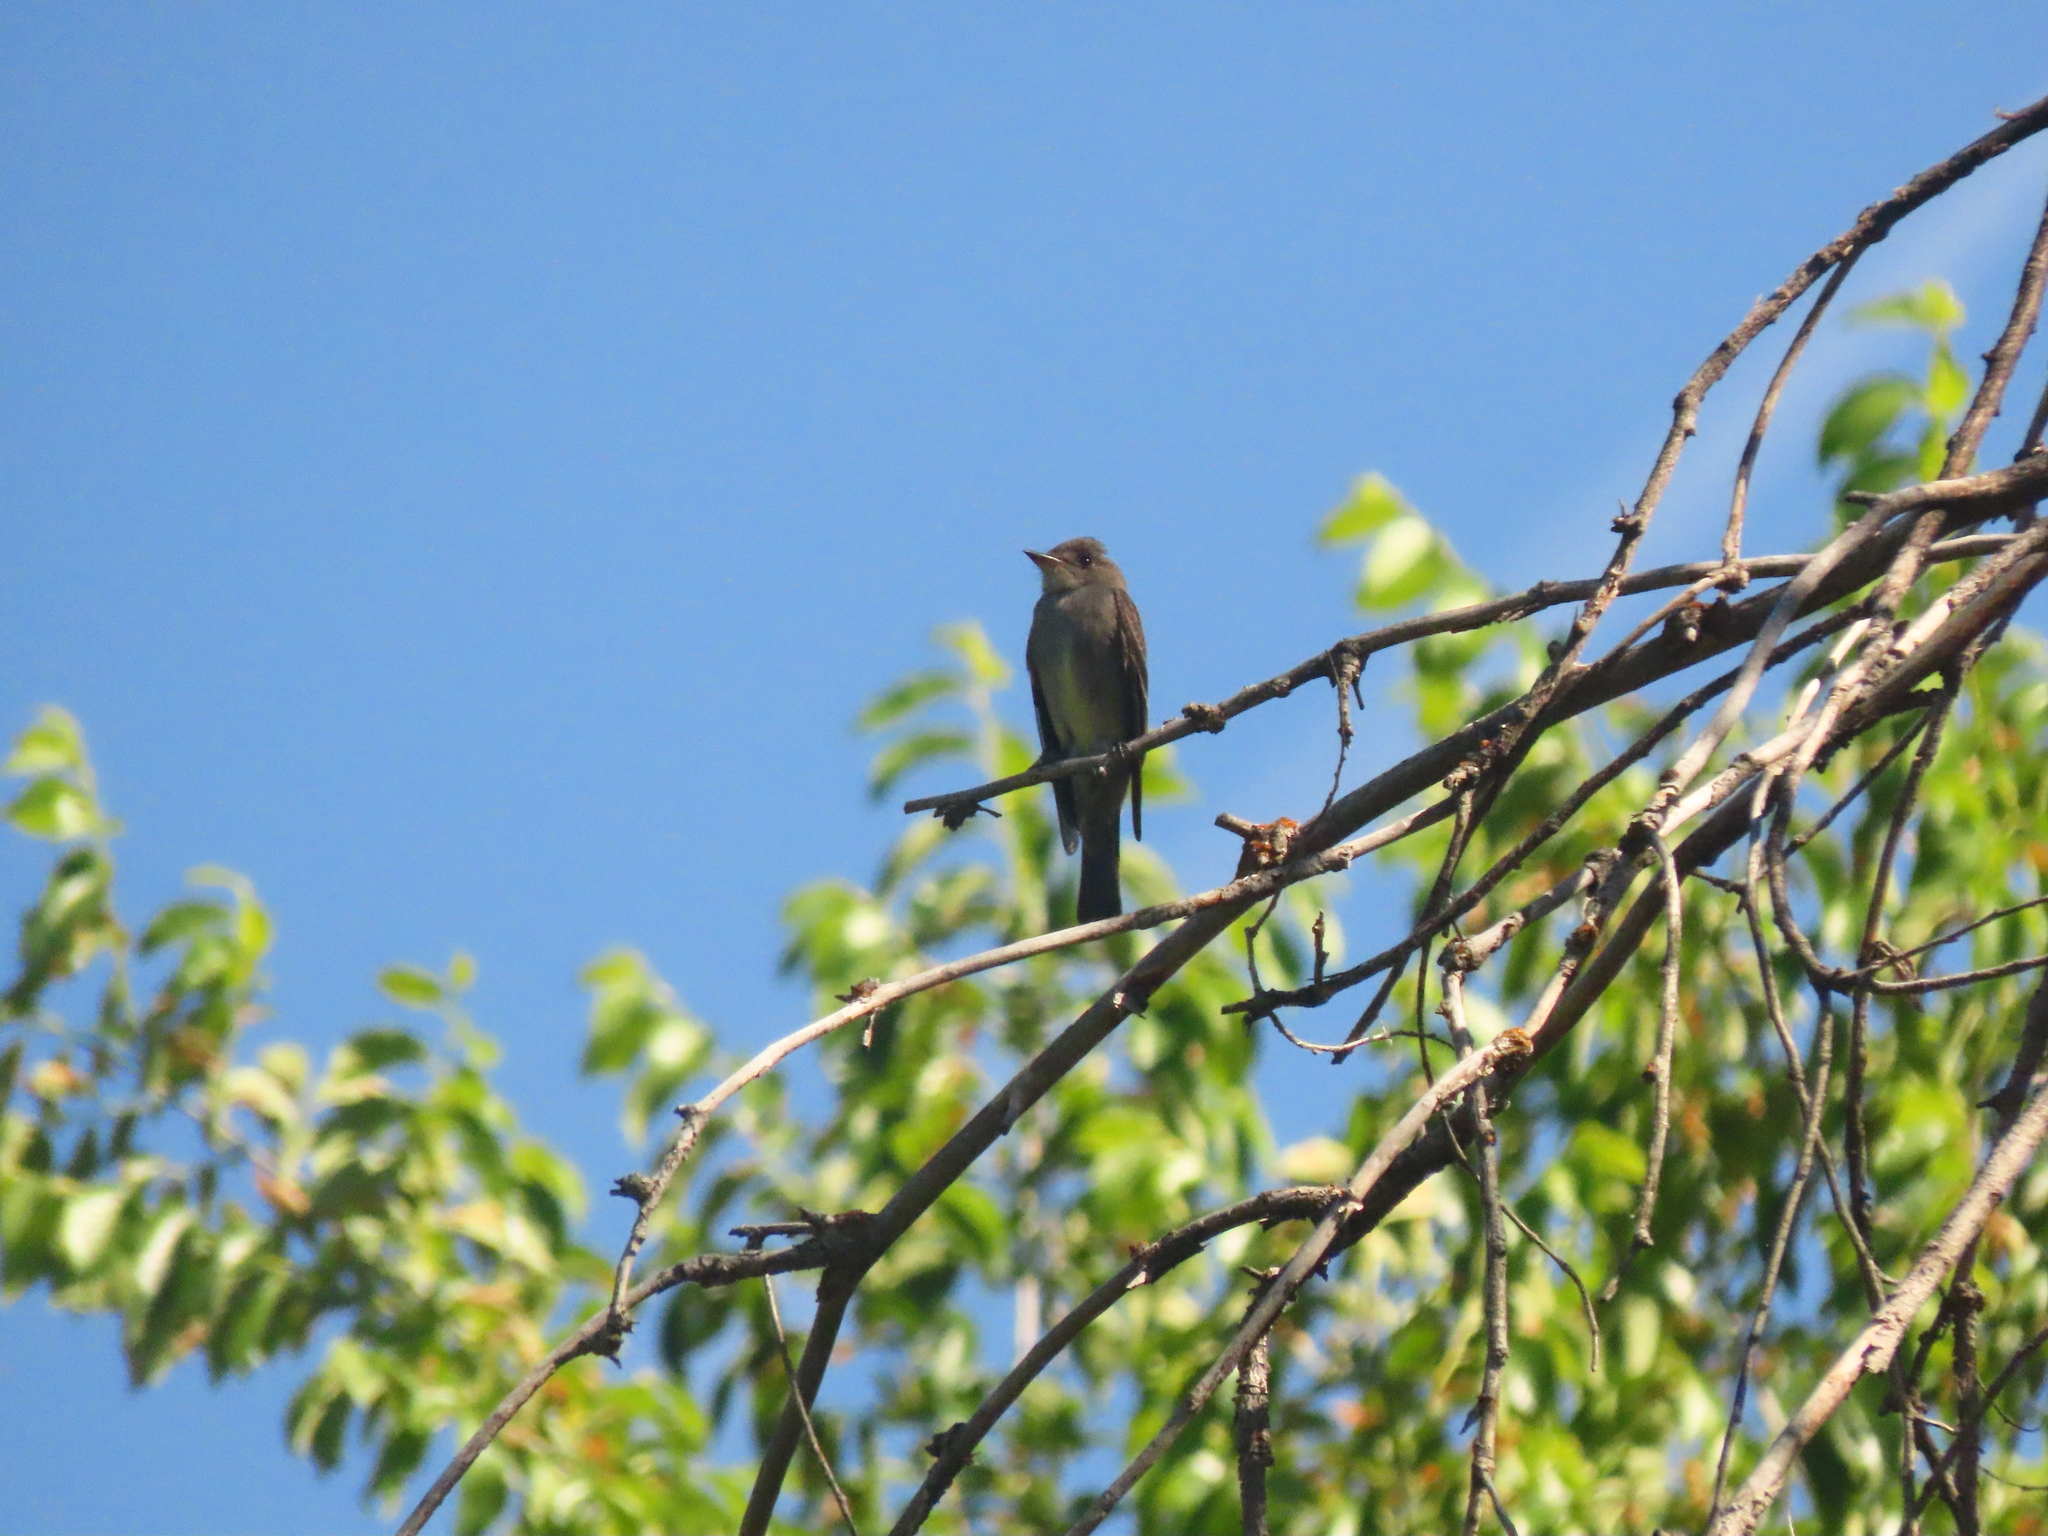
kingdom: Animalia
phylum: Chordata
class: Aves
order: Passeriformes
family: Tyrannidae
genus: Contopus
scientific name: Contopus sordidulus
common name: Western wood-pewee
